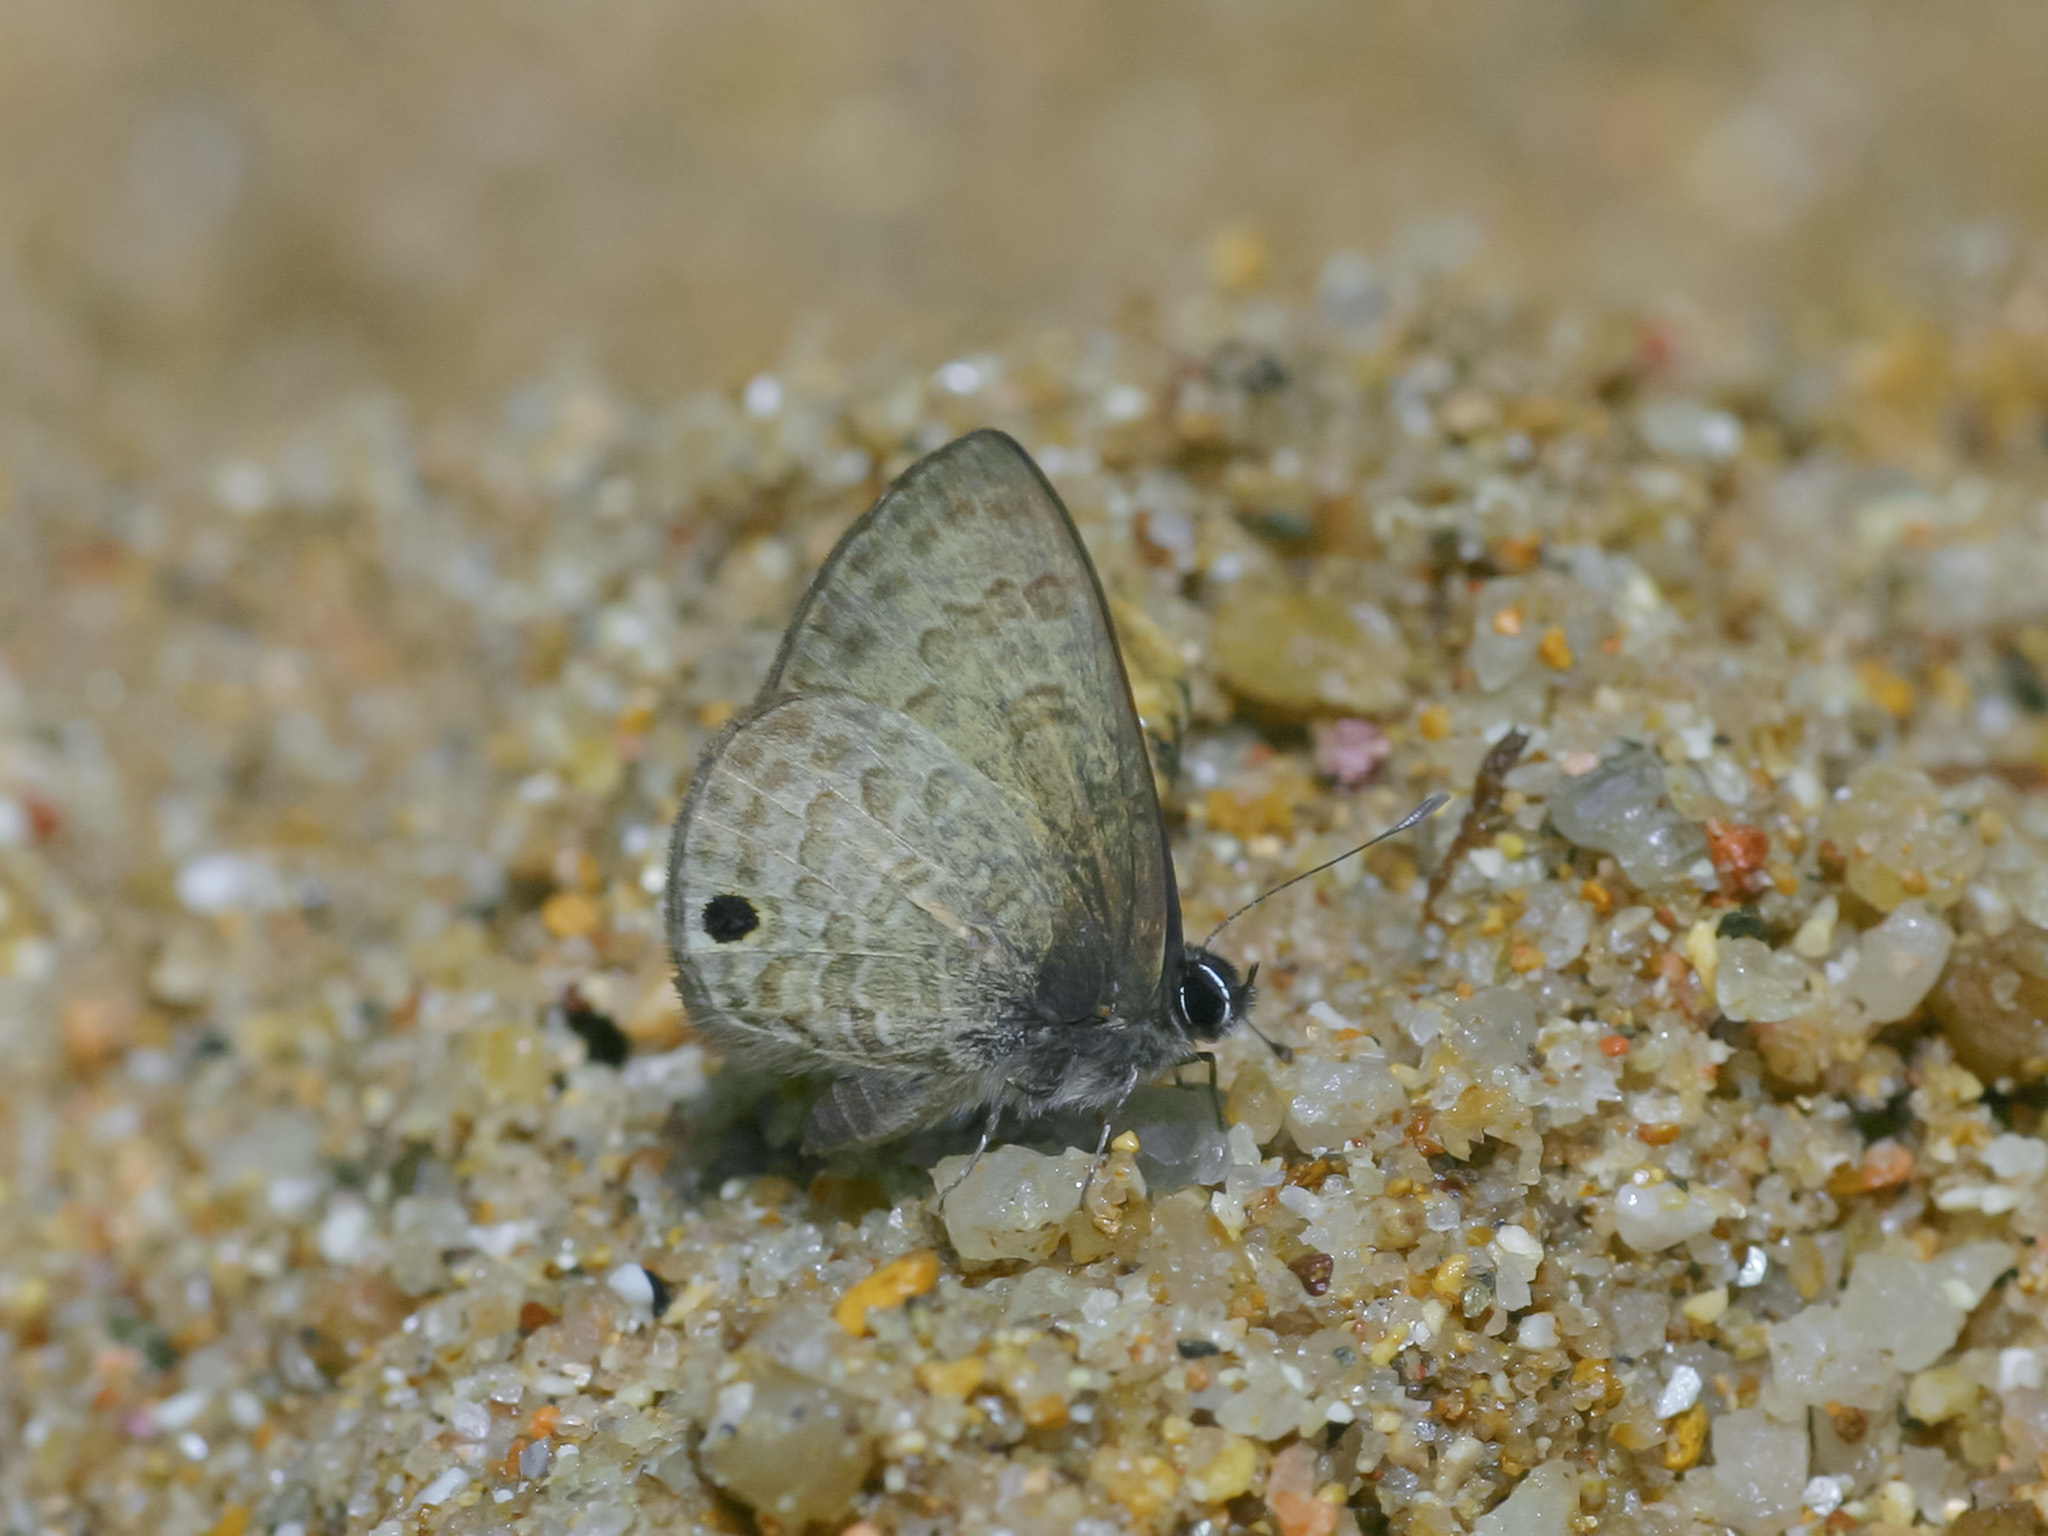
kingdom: Animalia
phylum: Arthropoda
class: Insecta
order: Lepidoptera
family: Lycaenidae
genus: Prosotas
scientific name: Prosotas gracilis
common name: Dark-based lineblue
